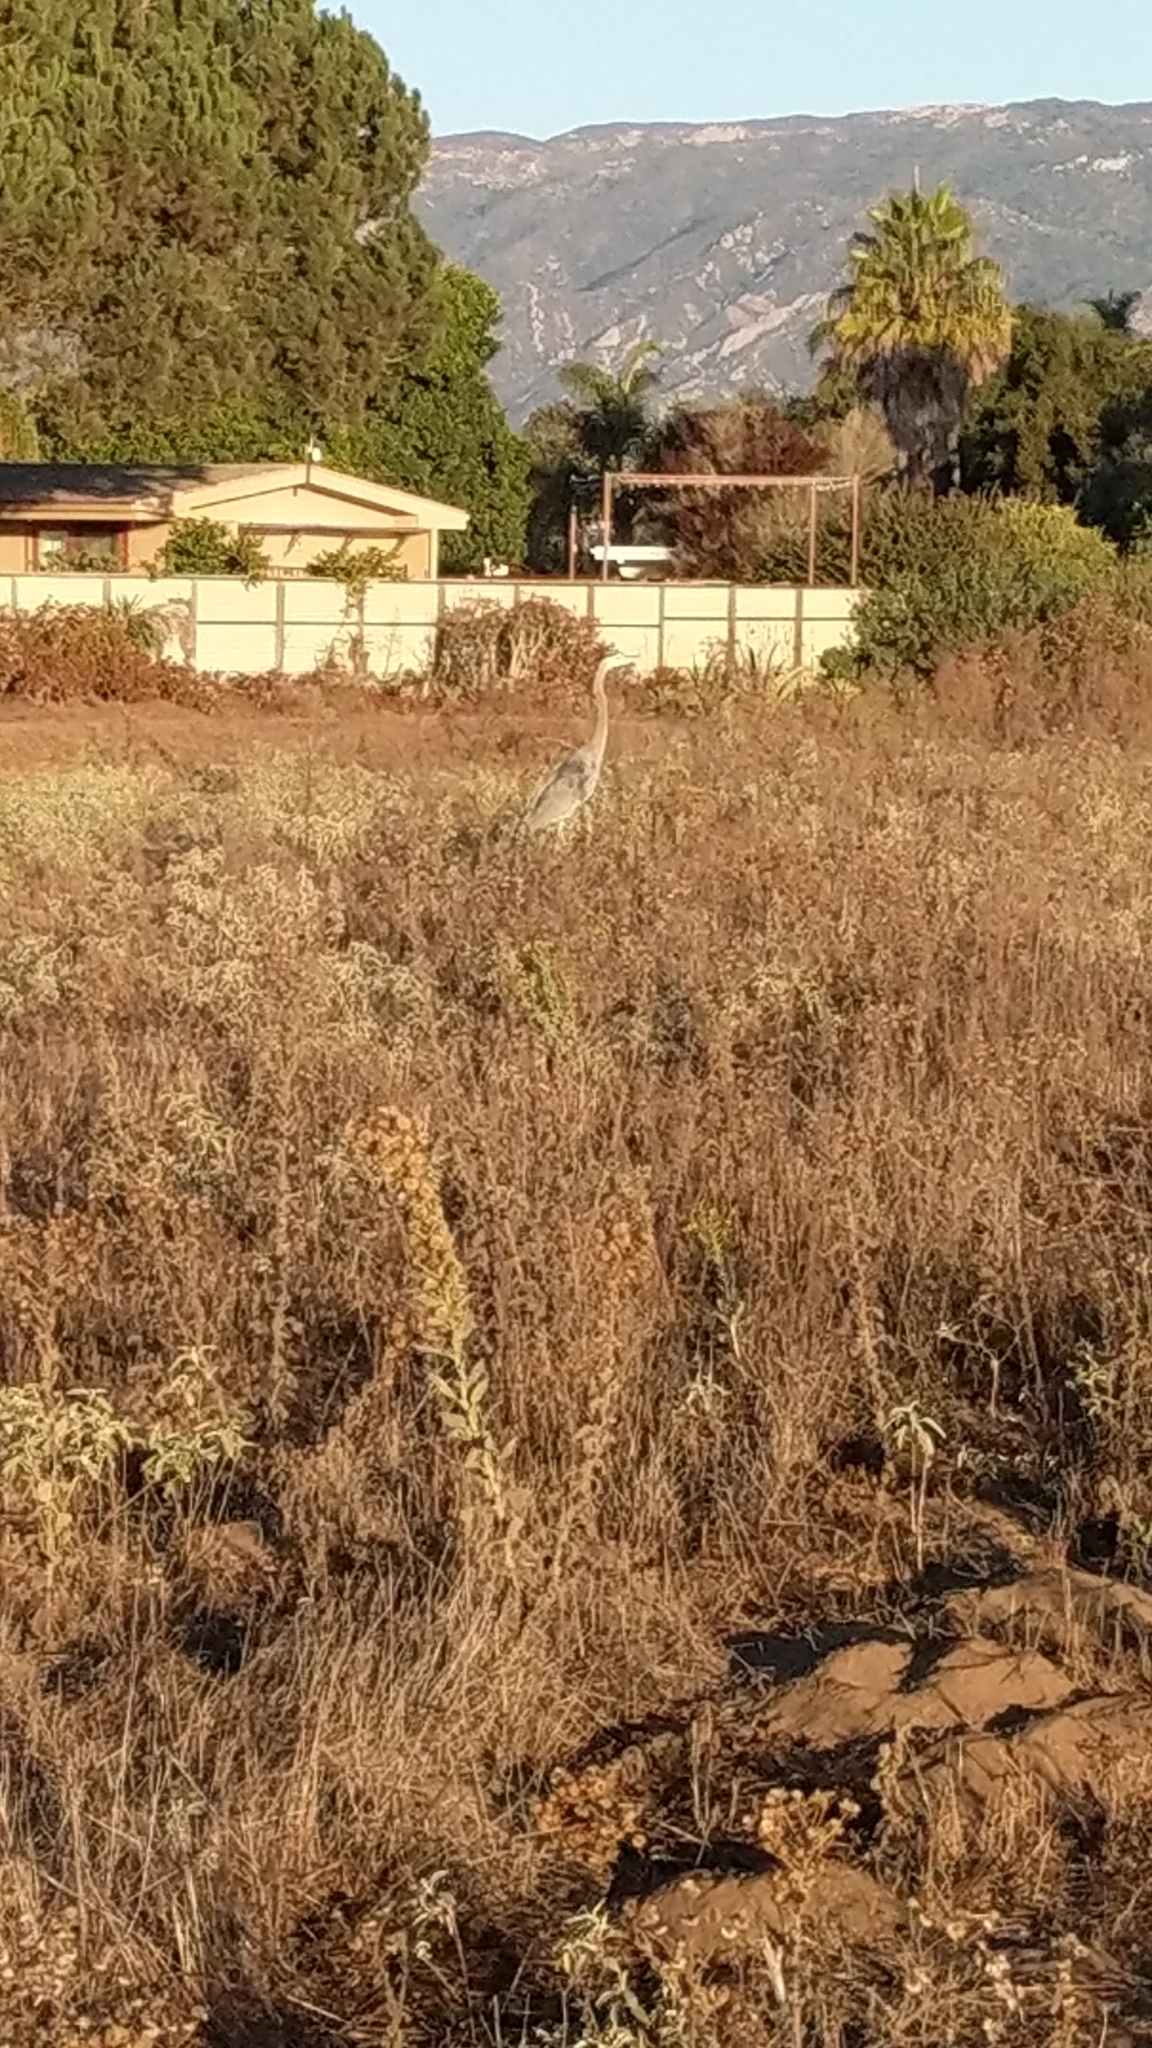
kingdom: Animalia
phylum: Chordata
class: Aves
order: Pelecaniformes
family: Ardeidae
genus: Ardea
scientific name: Ardea herodias
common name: Great blue heron
